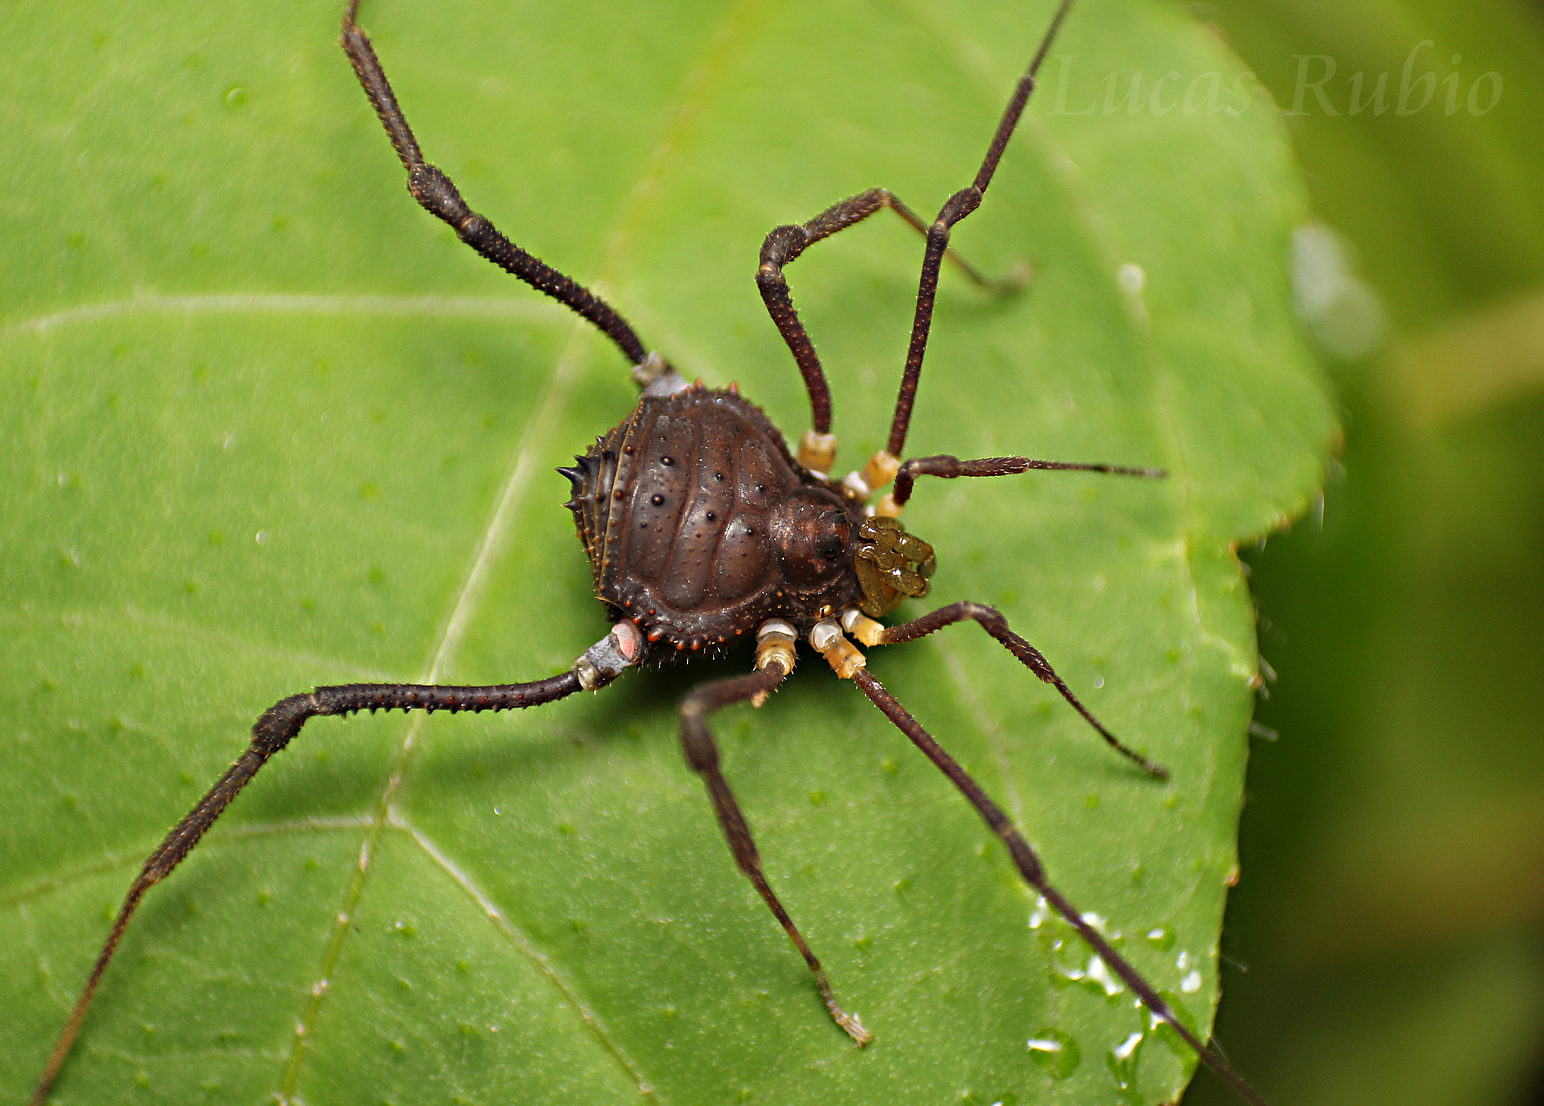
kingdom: Animalia
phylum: Arthropoda
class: Arachnida
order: Opiliones
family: Gonyleptidae
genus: Mischonyx
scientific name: Mischonyx squalidus
